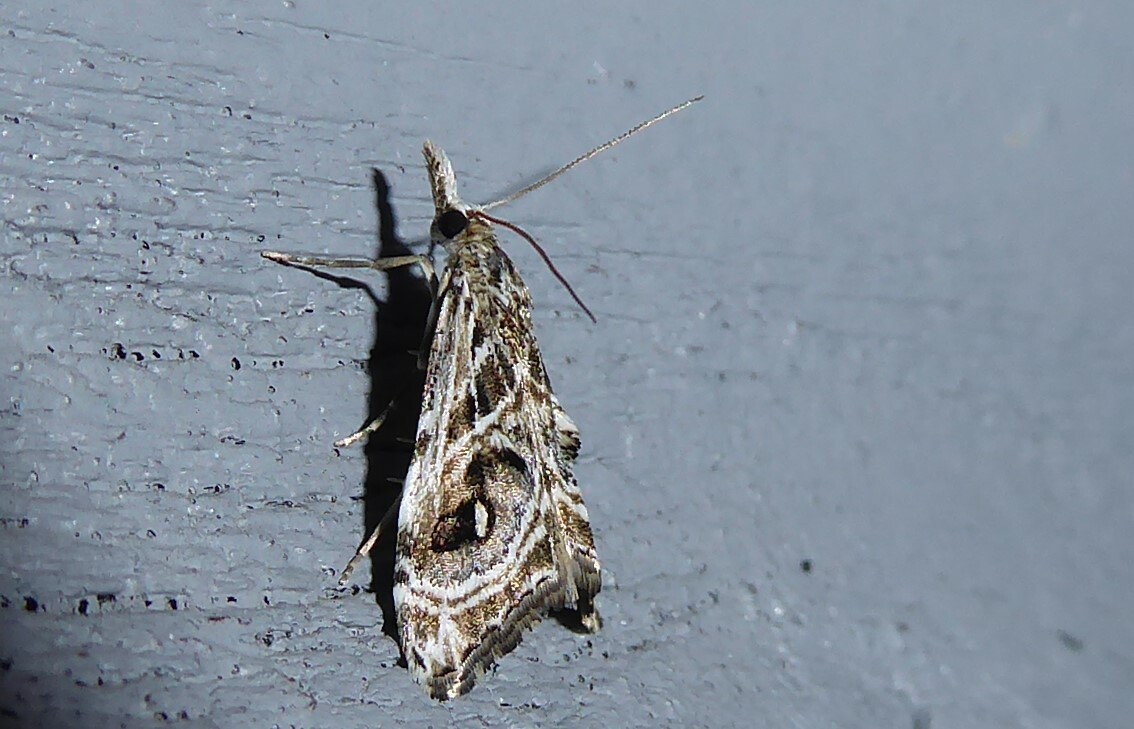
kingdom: Animalia
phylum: Arthropoda
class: Insecta
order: Lepidoptera
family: Crambidae
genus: Gadira
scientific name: Gadira acerella
